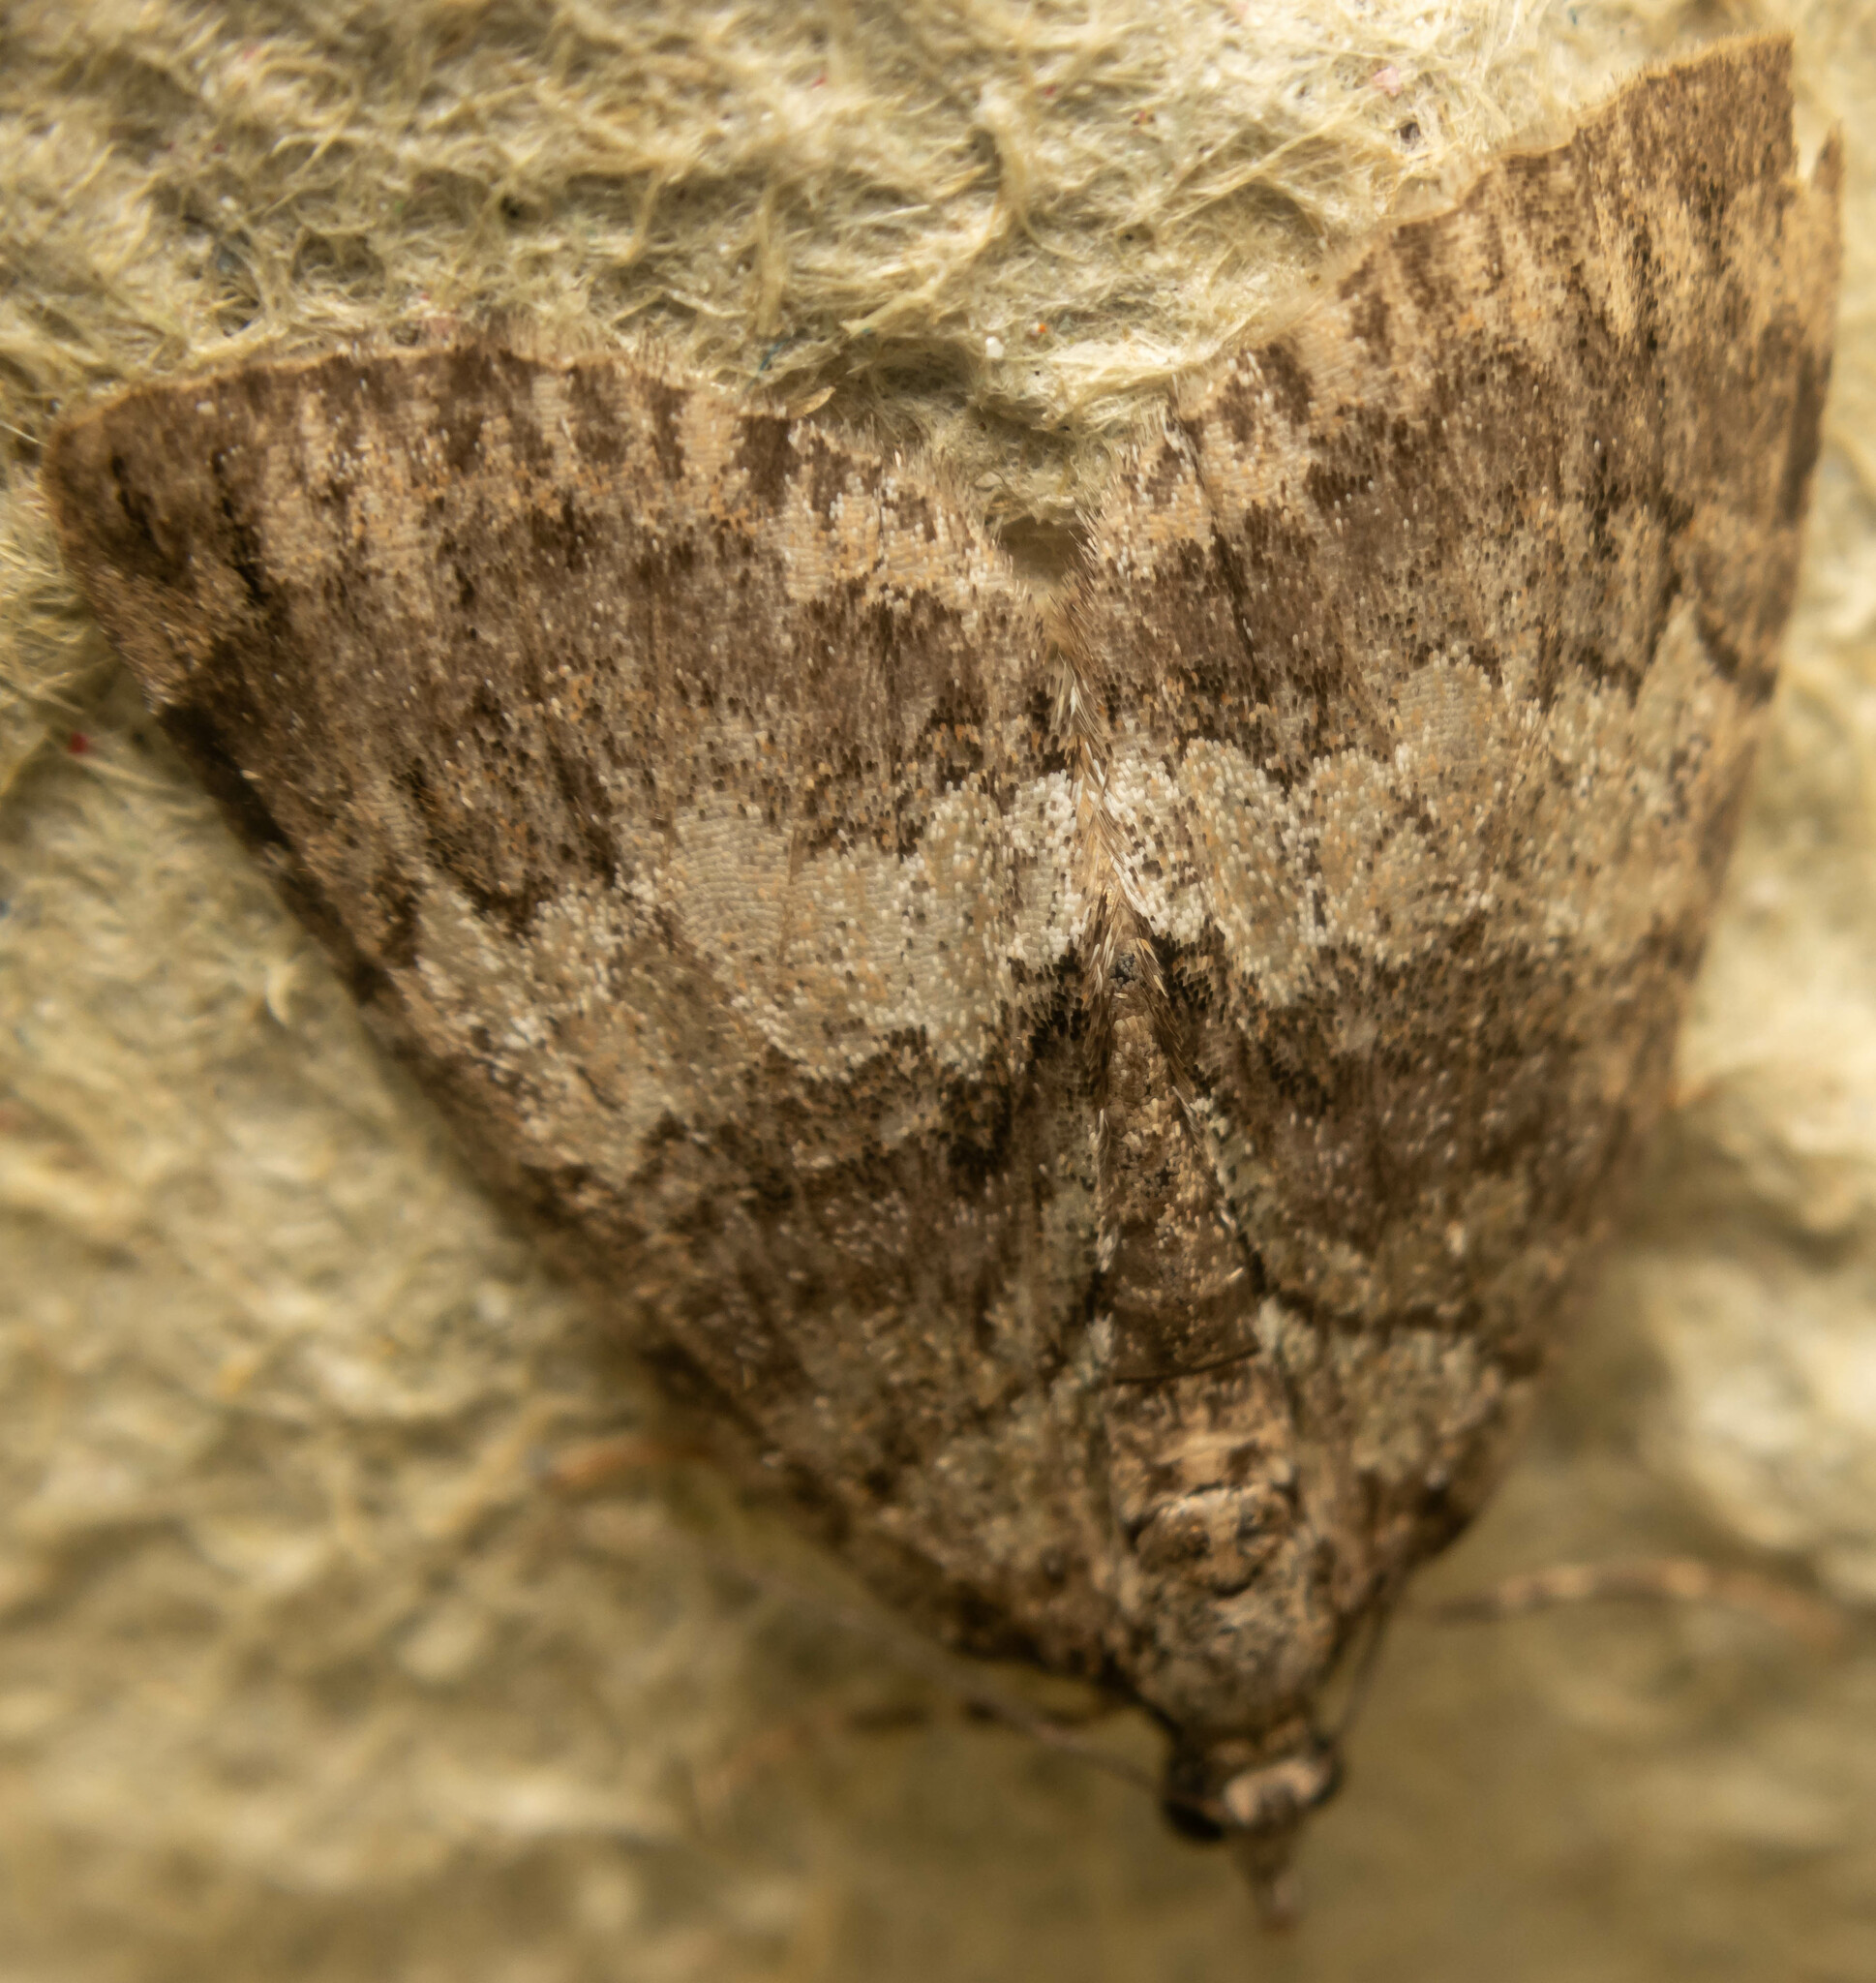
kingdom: Animalia
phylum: Arthropoda
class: Insecta
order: Lepidoptera
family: Geometridae
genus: Hydriomena
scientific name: Hydriomena impluviata
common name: May highflyer
